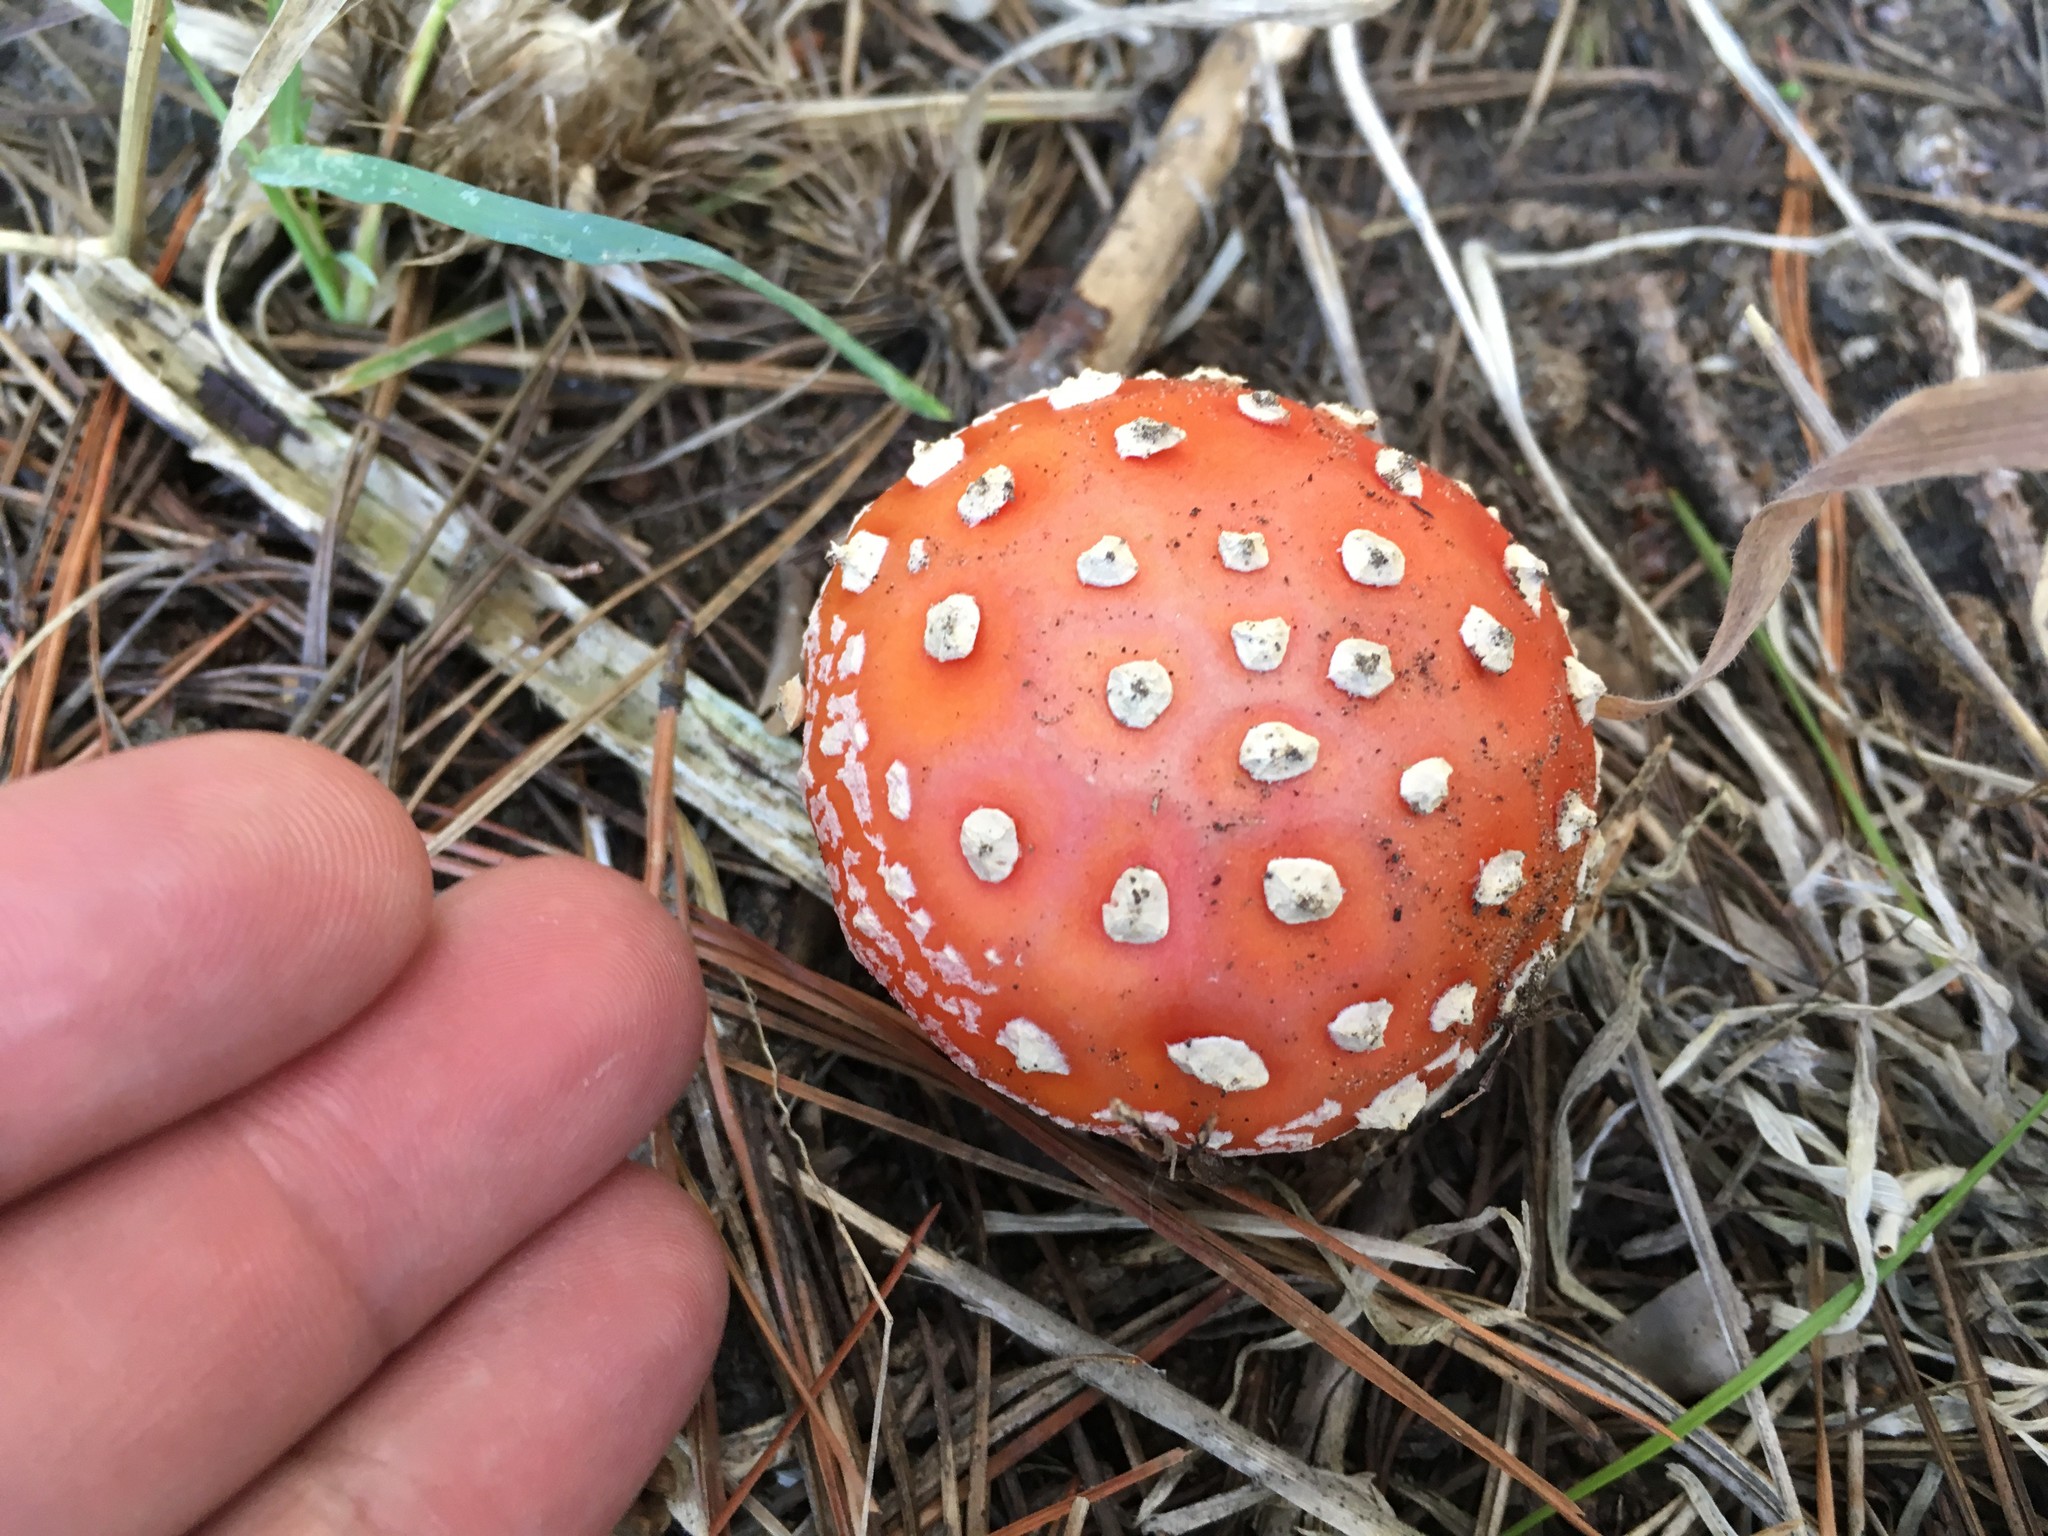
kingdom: Fungi
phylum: Basidiomycota
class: Agaricomycetes
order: Agaricales
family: Amanitaceae
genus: Amanita
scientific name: Amanita muscaria
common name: Fly agaric
